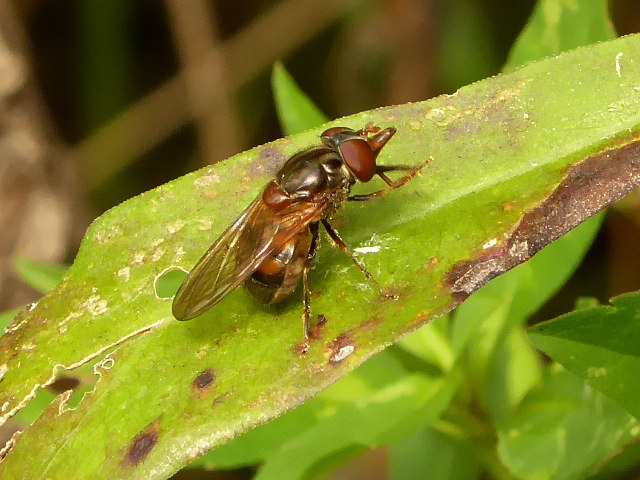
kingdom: Animalia
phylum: Arthropoda
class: Insecta
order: Diptera
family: Syrphidae
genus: Rhingia
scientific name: Rhingia nasica
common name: American snout fly
